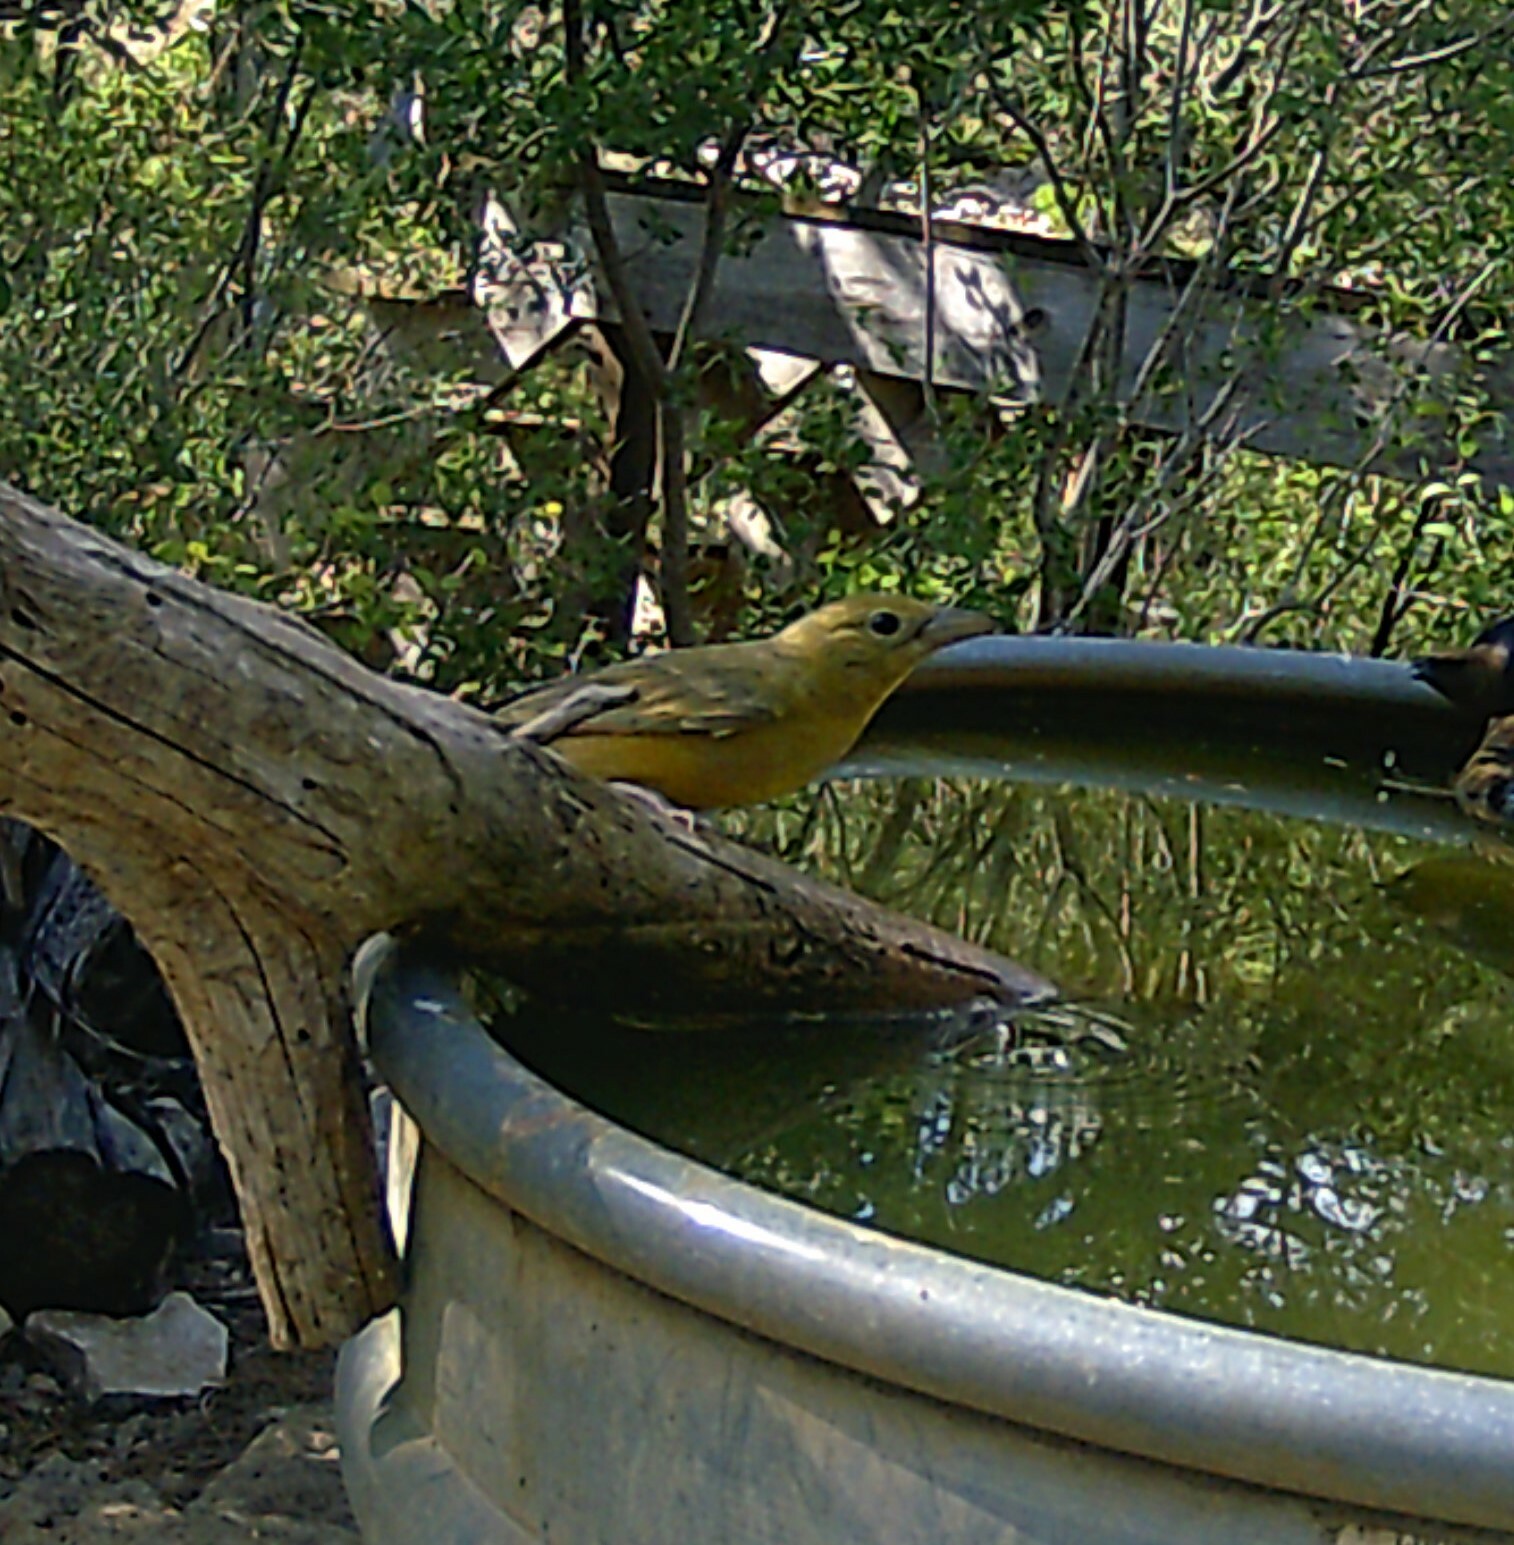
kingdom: Animalia
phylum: Chordata
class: Aves
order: Passeriformes
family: Cardinalidae
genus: Piranga
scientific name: Piranga rubra
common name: Summer tanager
